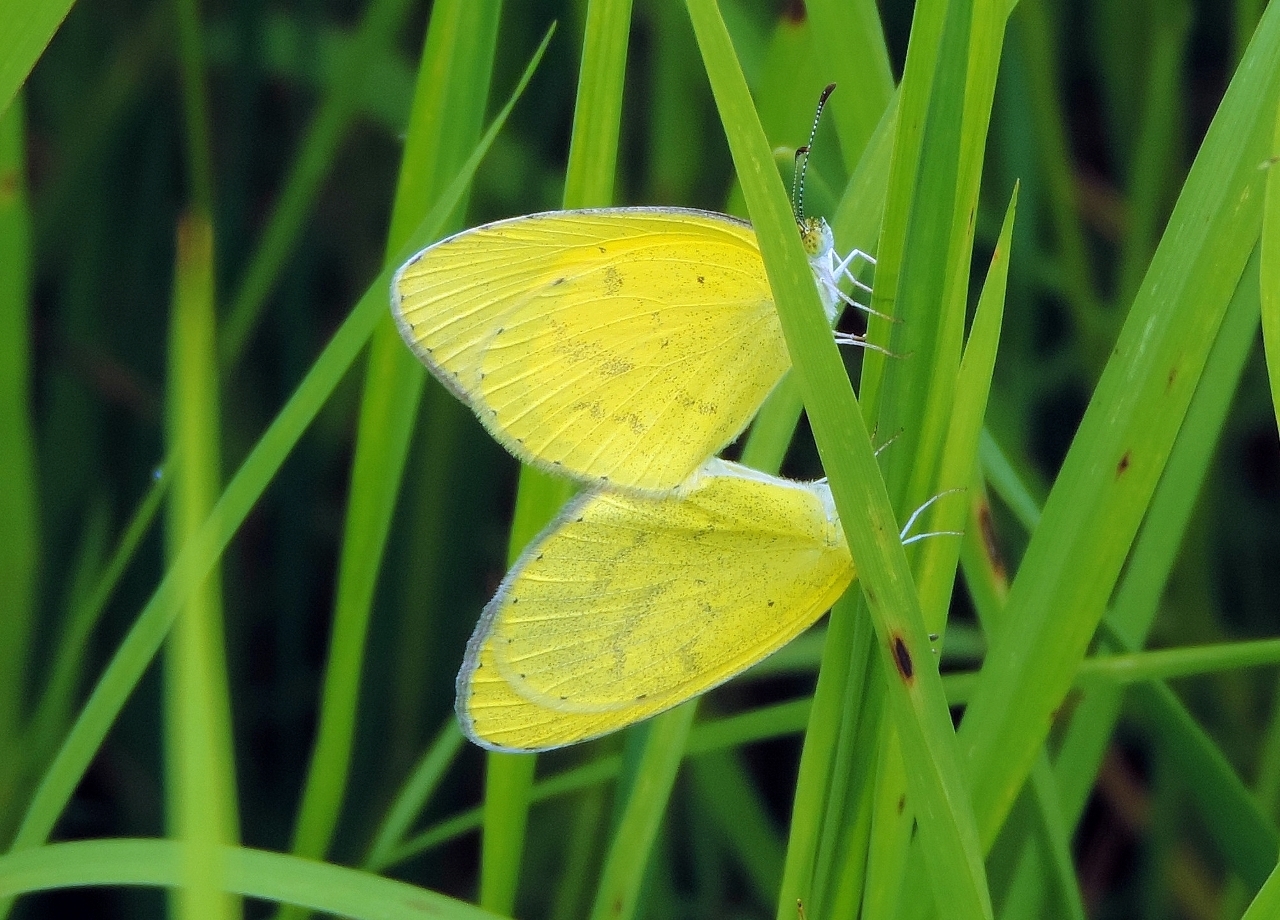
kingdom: Animalia
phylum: Arthropoda
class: Insecta
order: Lepidoptera
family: Pieridae
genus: Eurema
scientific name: Eurema brigitta
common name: Small grass yellow
